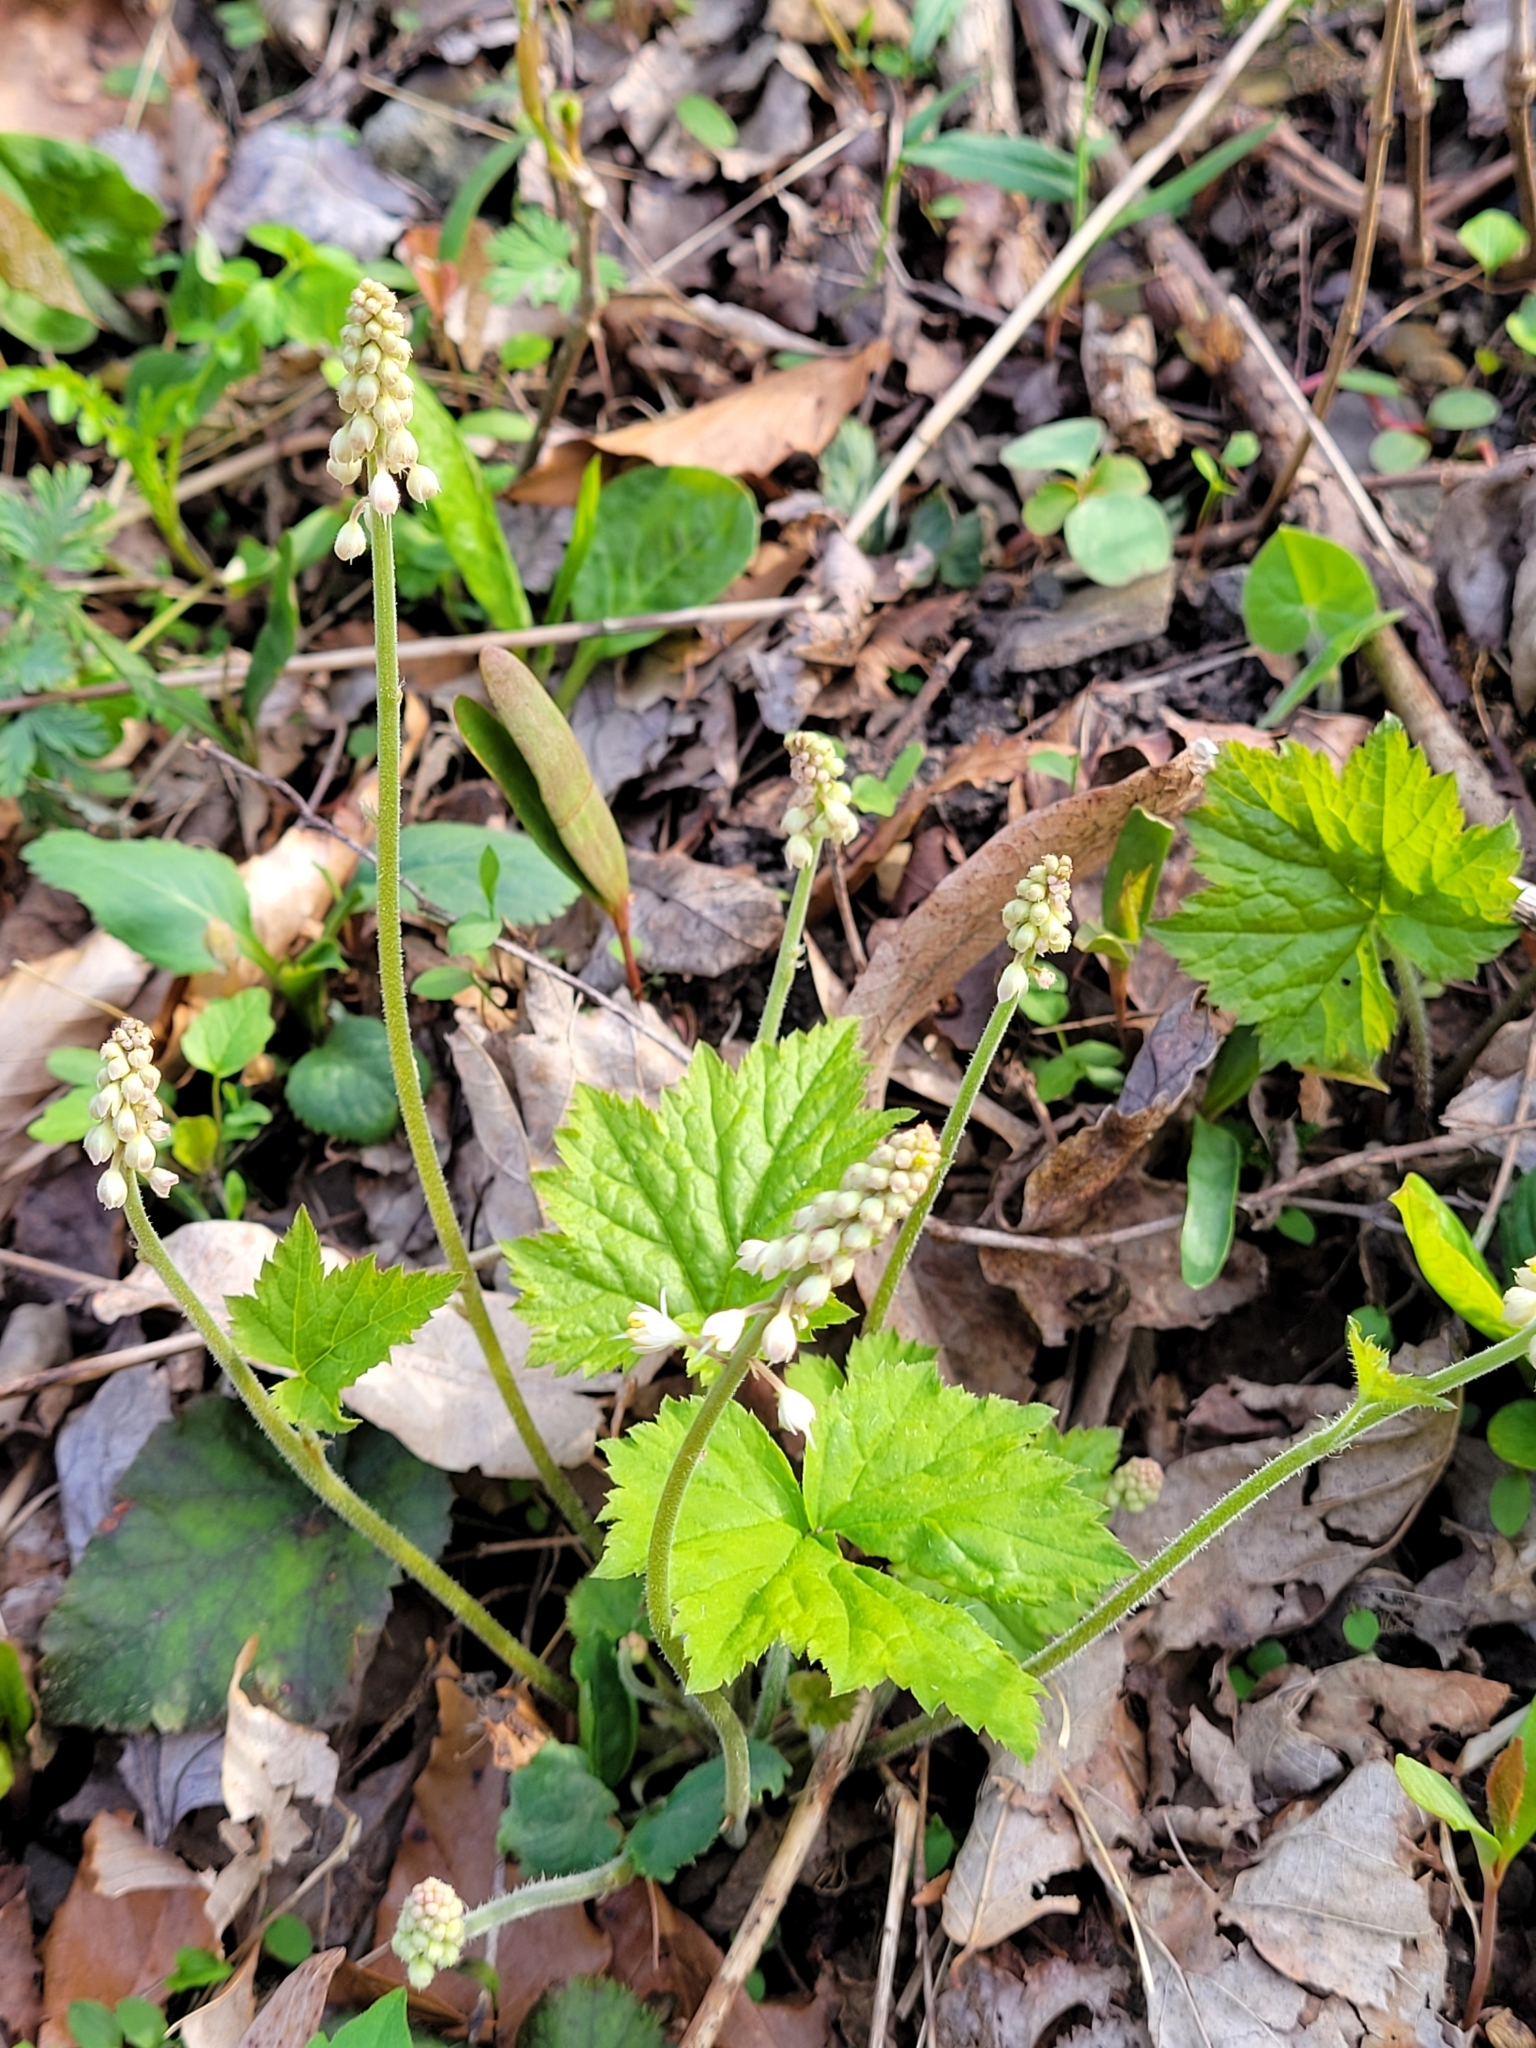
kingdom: Plantae
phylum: Tracheophyta
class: Magnoliopsida
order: Saxifragales
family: Saxifragaceae
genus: Tiarella
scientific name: Tiarella stolonifera
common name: Stoloniferous foamflower
